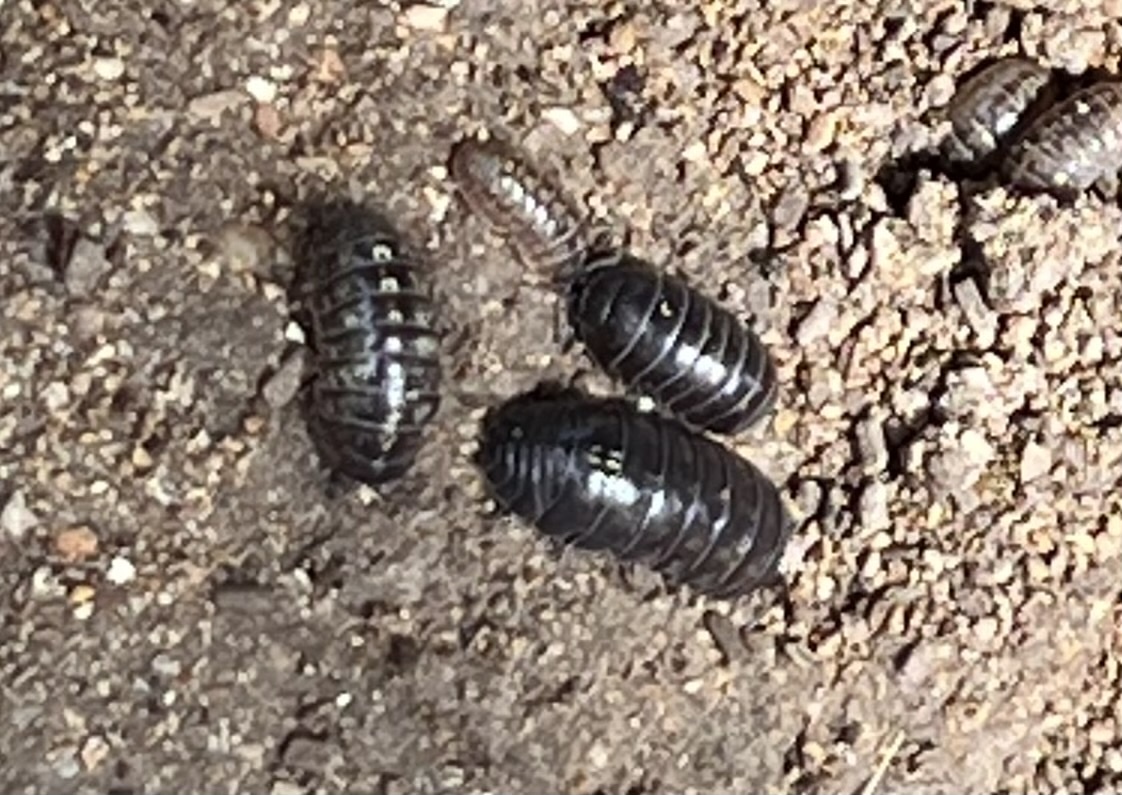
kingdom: Animalia
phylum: Arthropoda
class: Malacostraca
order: Isopoda
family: Armadillidiidae
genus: Armadillidium
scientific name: Armadillidium vulgare
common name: Common pill woodlouse
